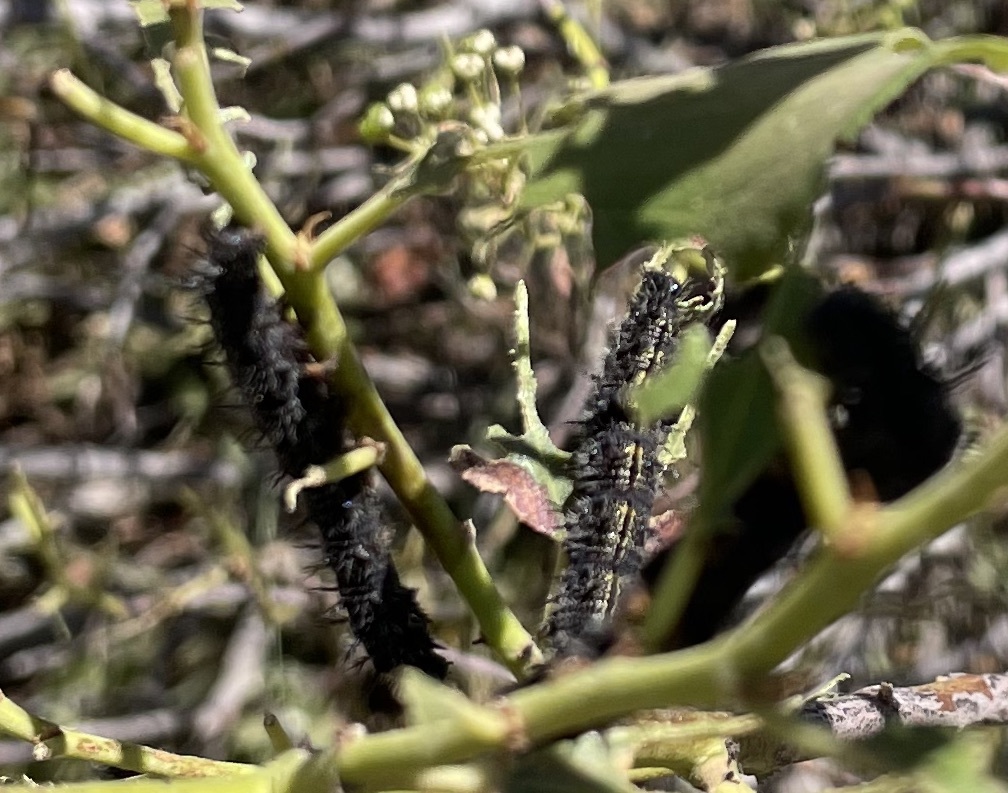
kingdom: Animalia
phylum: Arthropoda
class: Insecta
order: Lepidoptera
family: Nymphalidae
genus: Nymphalis
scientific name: Nymphalis californica
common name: California tortoiseshell
